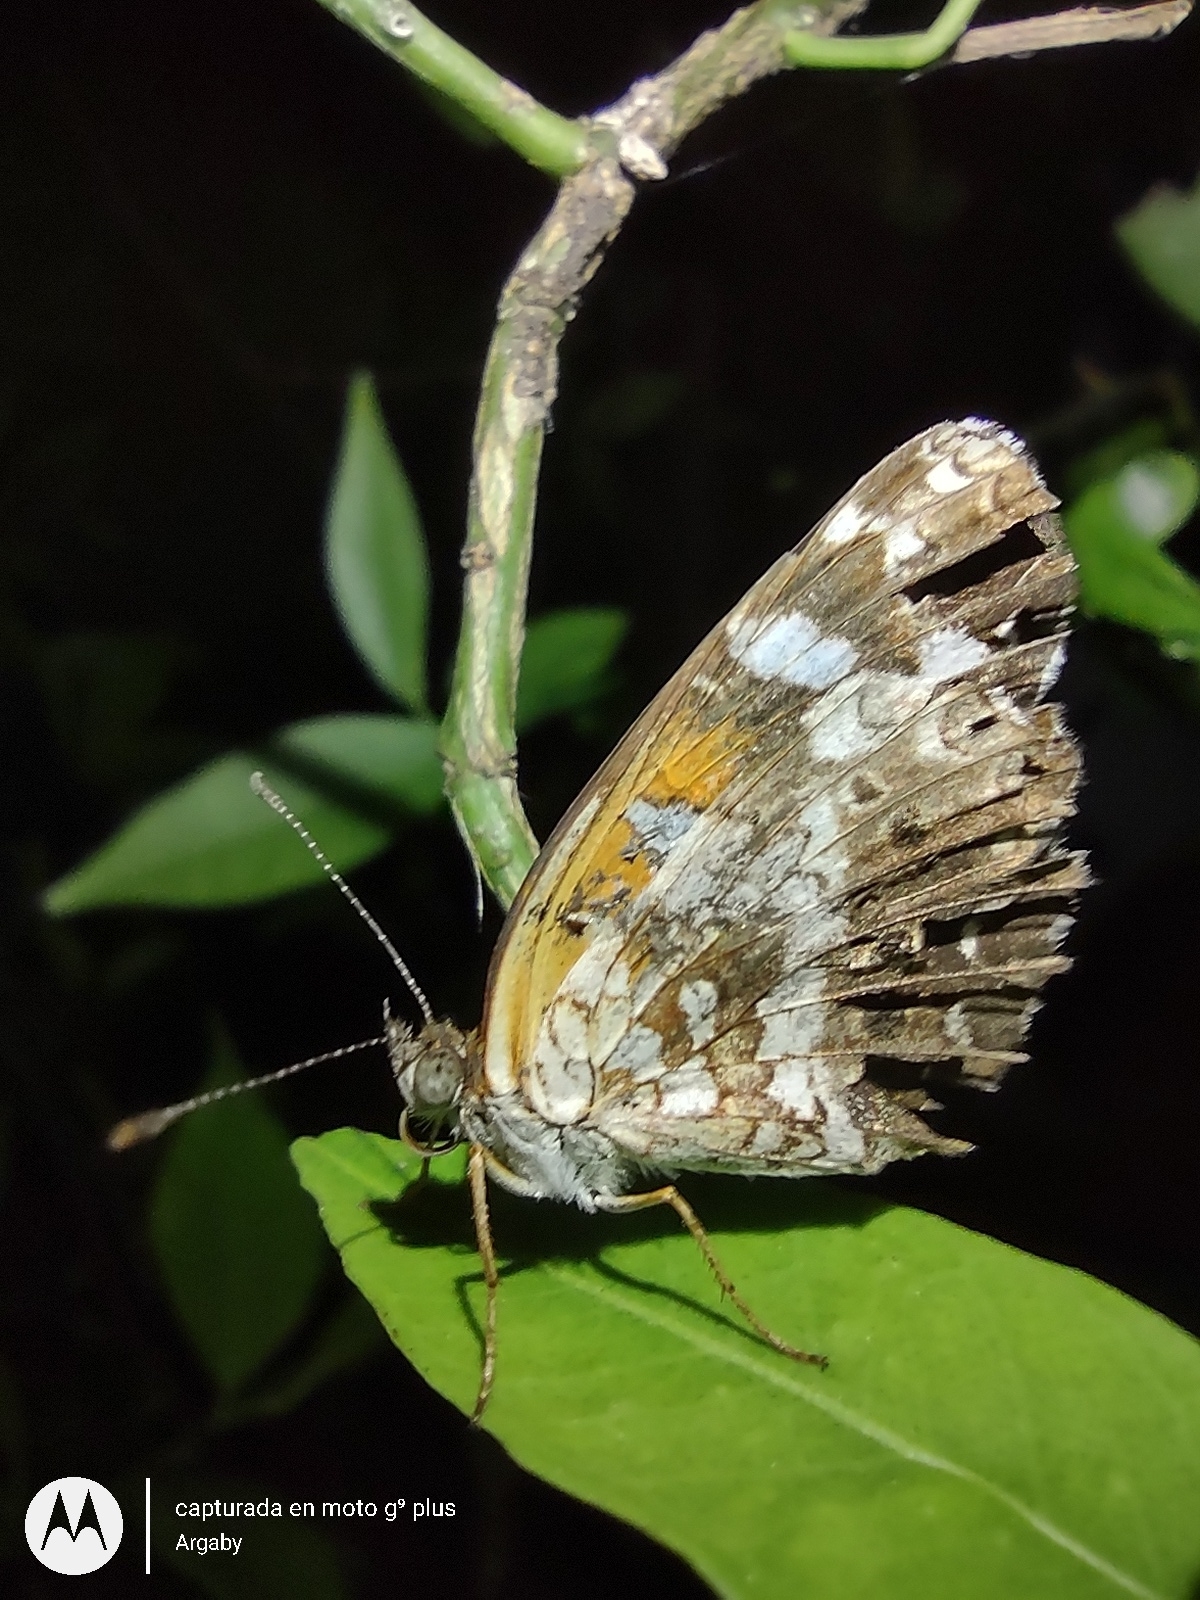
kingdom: Animalia
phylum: Arthropoda
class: Insecta
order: Lepidoptera
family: Nymphalidae
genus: Ortilia
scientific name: Ortilia ithra
